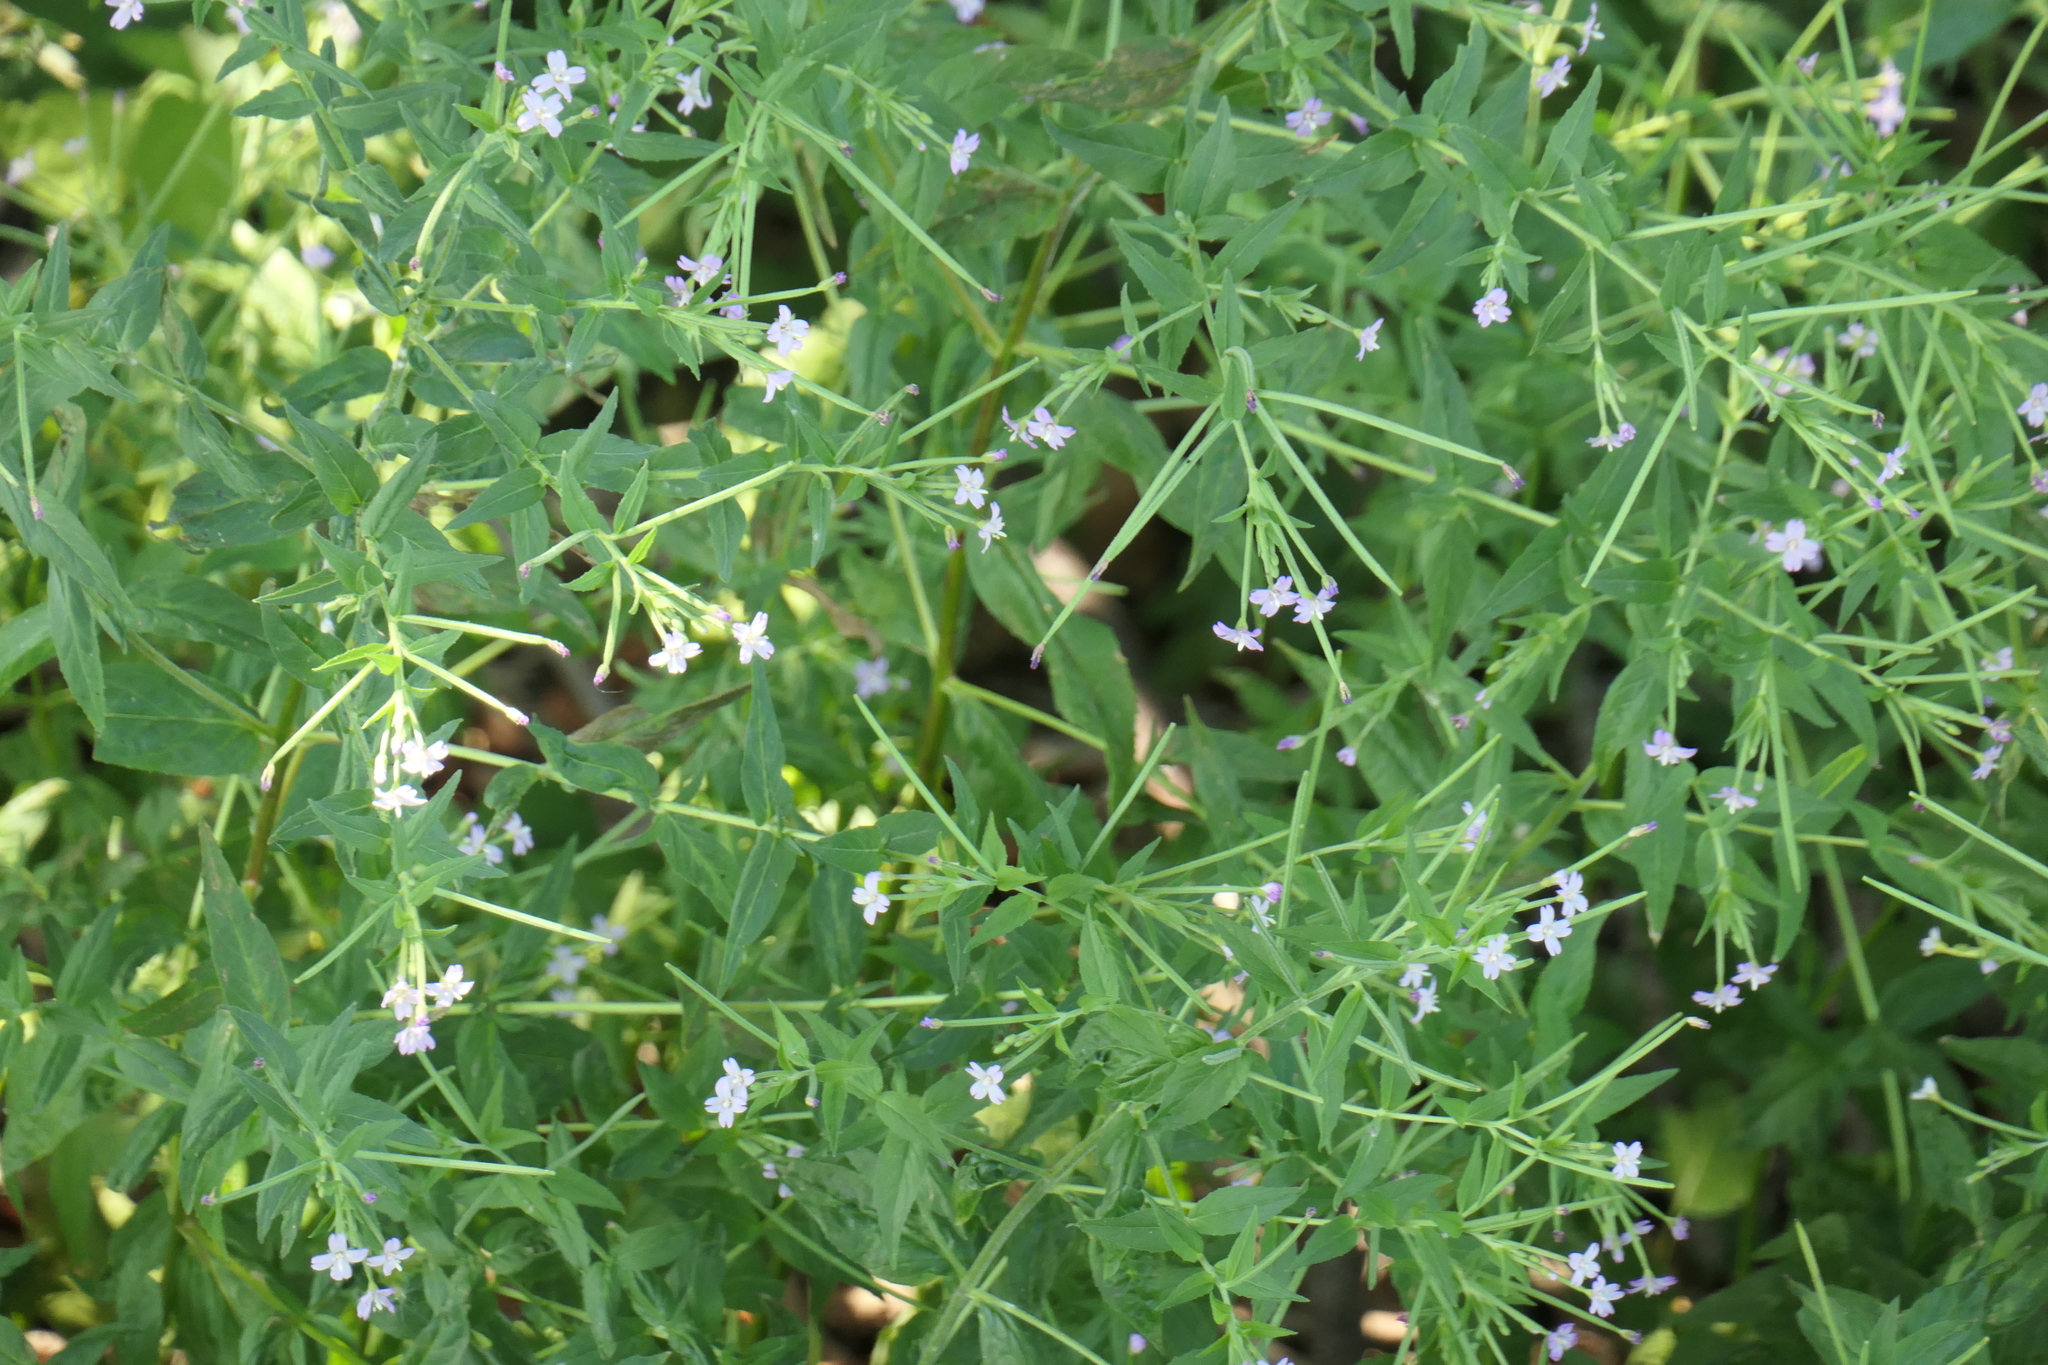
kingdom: Plantae
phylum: Tracheophyta
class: Magnoliopsida
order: Myrtales
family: Onagraceae
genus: Epilobium
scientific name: Epilobium ciliatum
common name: American willowherb
